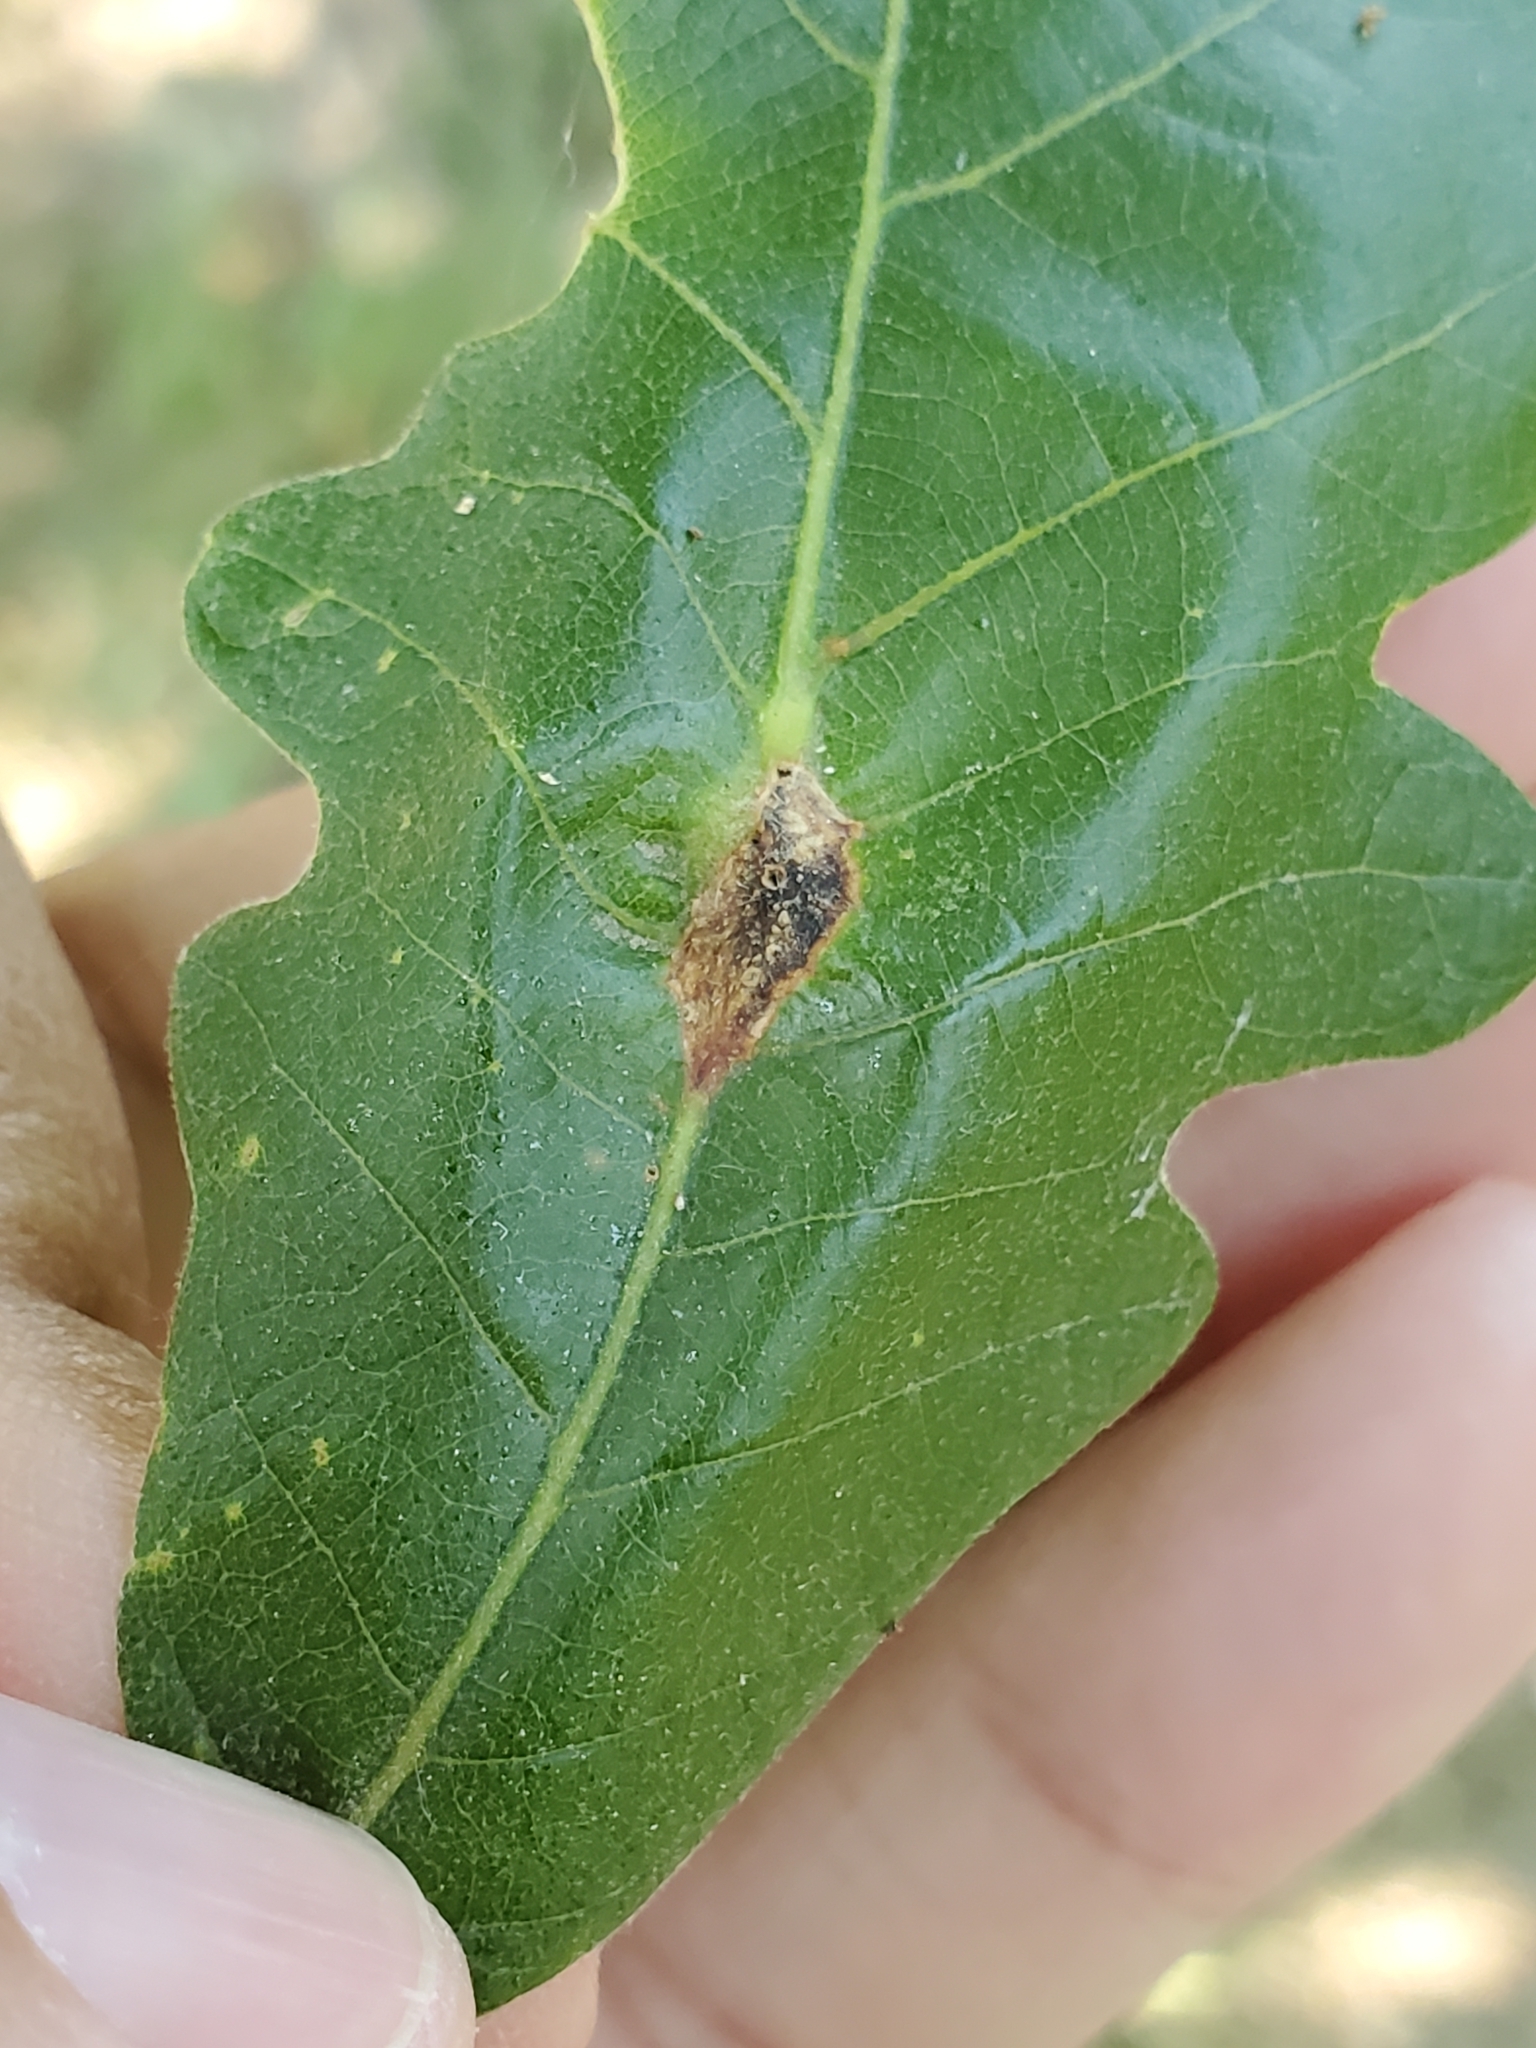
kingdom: Animalia
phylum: Arthropoda
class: Insecta
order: Hymenoptera
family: Cynipidae
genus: Bassettia
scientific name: Bassettia flavipes
